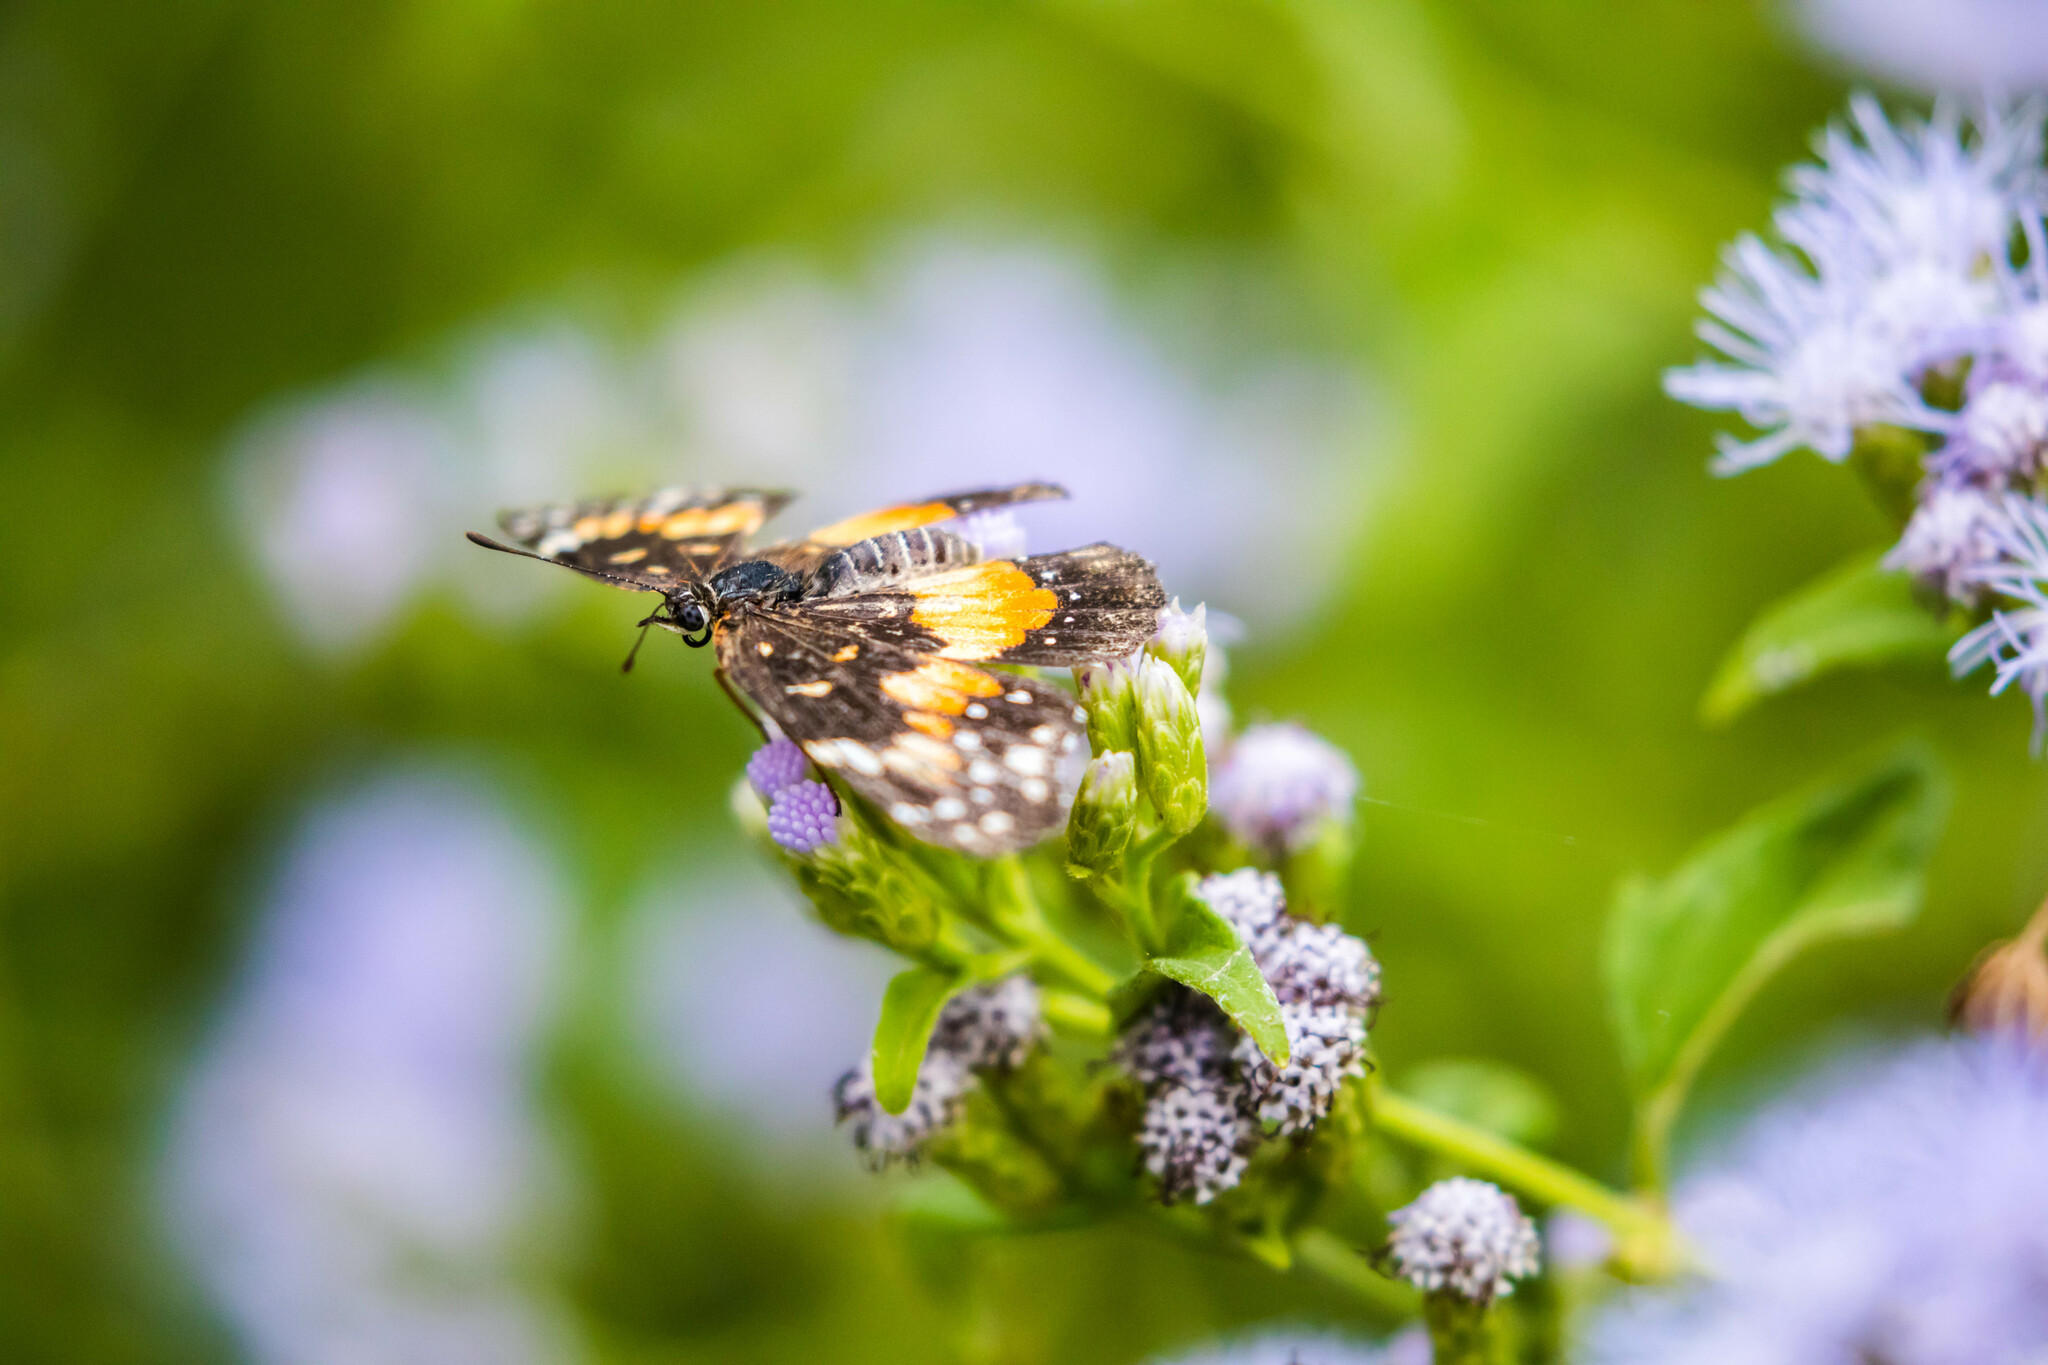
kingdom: Animalia
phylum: Arthropoda
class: Insecta
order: Lepidoptera
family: Nymphalidae
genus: Chlosyne
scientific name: Chlosyne lacinia
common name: Bordered patch
